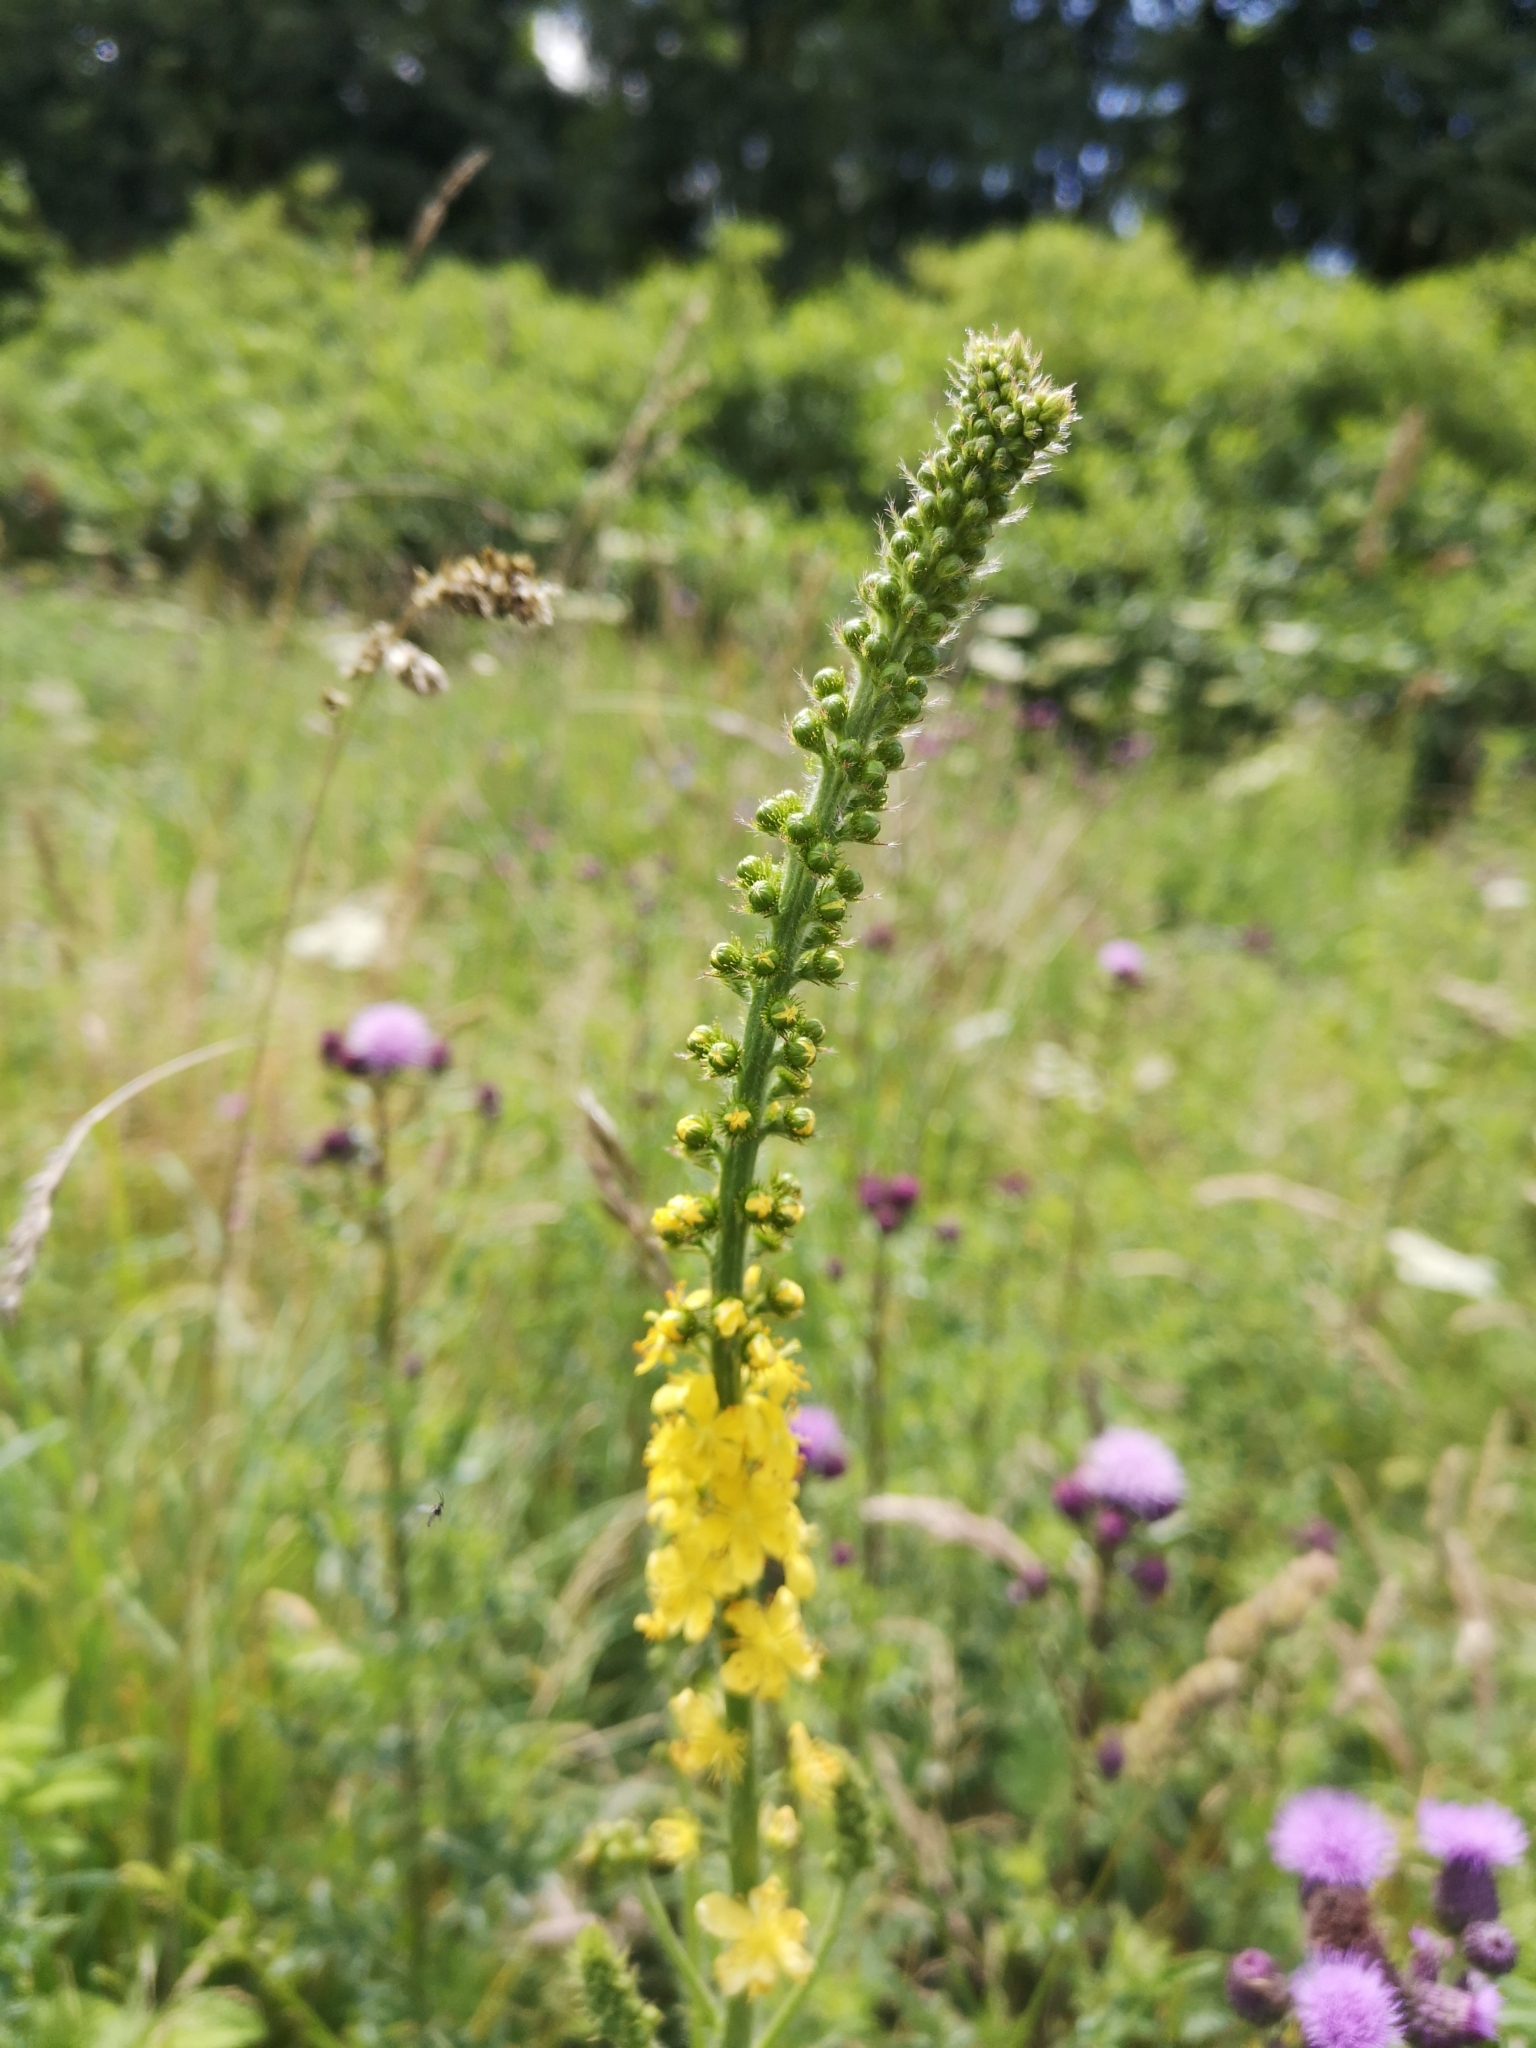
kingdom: Plantae
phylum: Tracheophyta
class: Magnoliopsida
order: Rosales
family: Rosaceae
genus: Agrimonia
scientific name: Agrimonia eupatoria
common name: Agrimony
